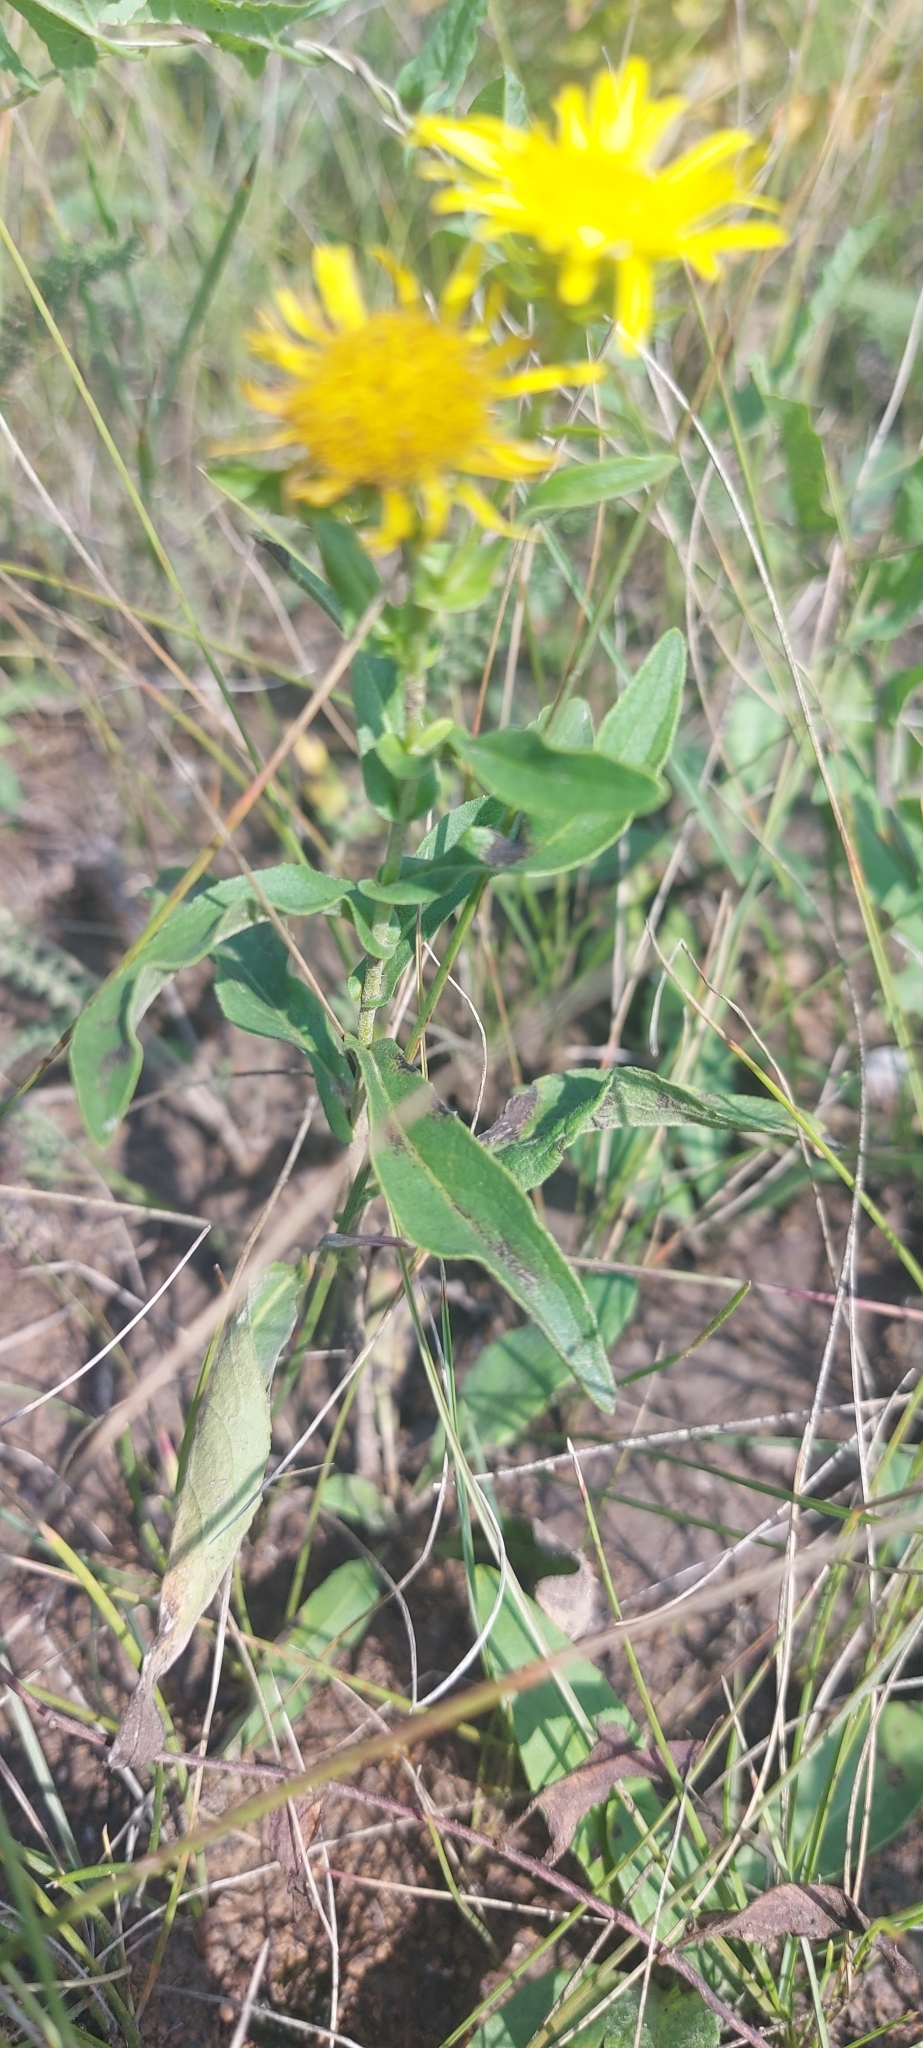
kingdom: Plantae
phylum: Tracheophyta
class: Magnoliopsida
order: Asterales
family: Asteraceae
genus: Pentanema
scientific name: Pentanema britannicum
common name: British elecampane
